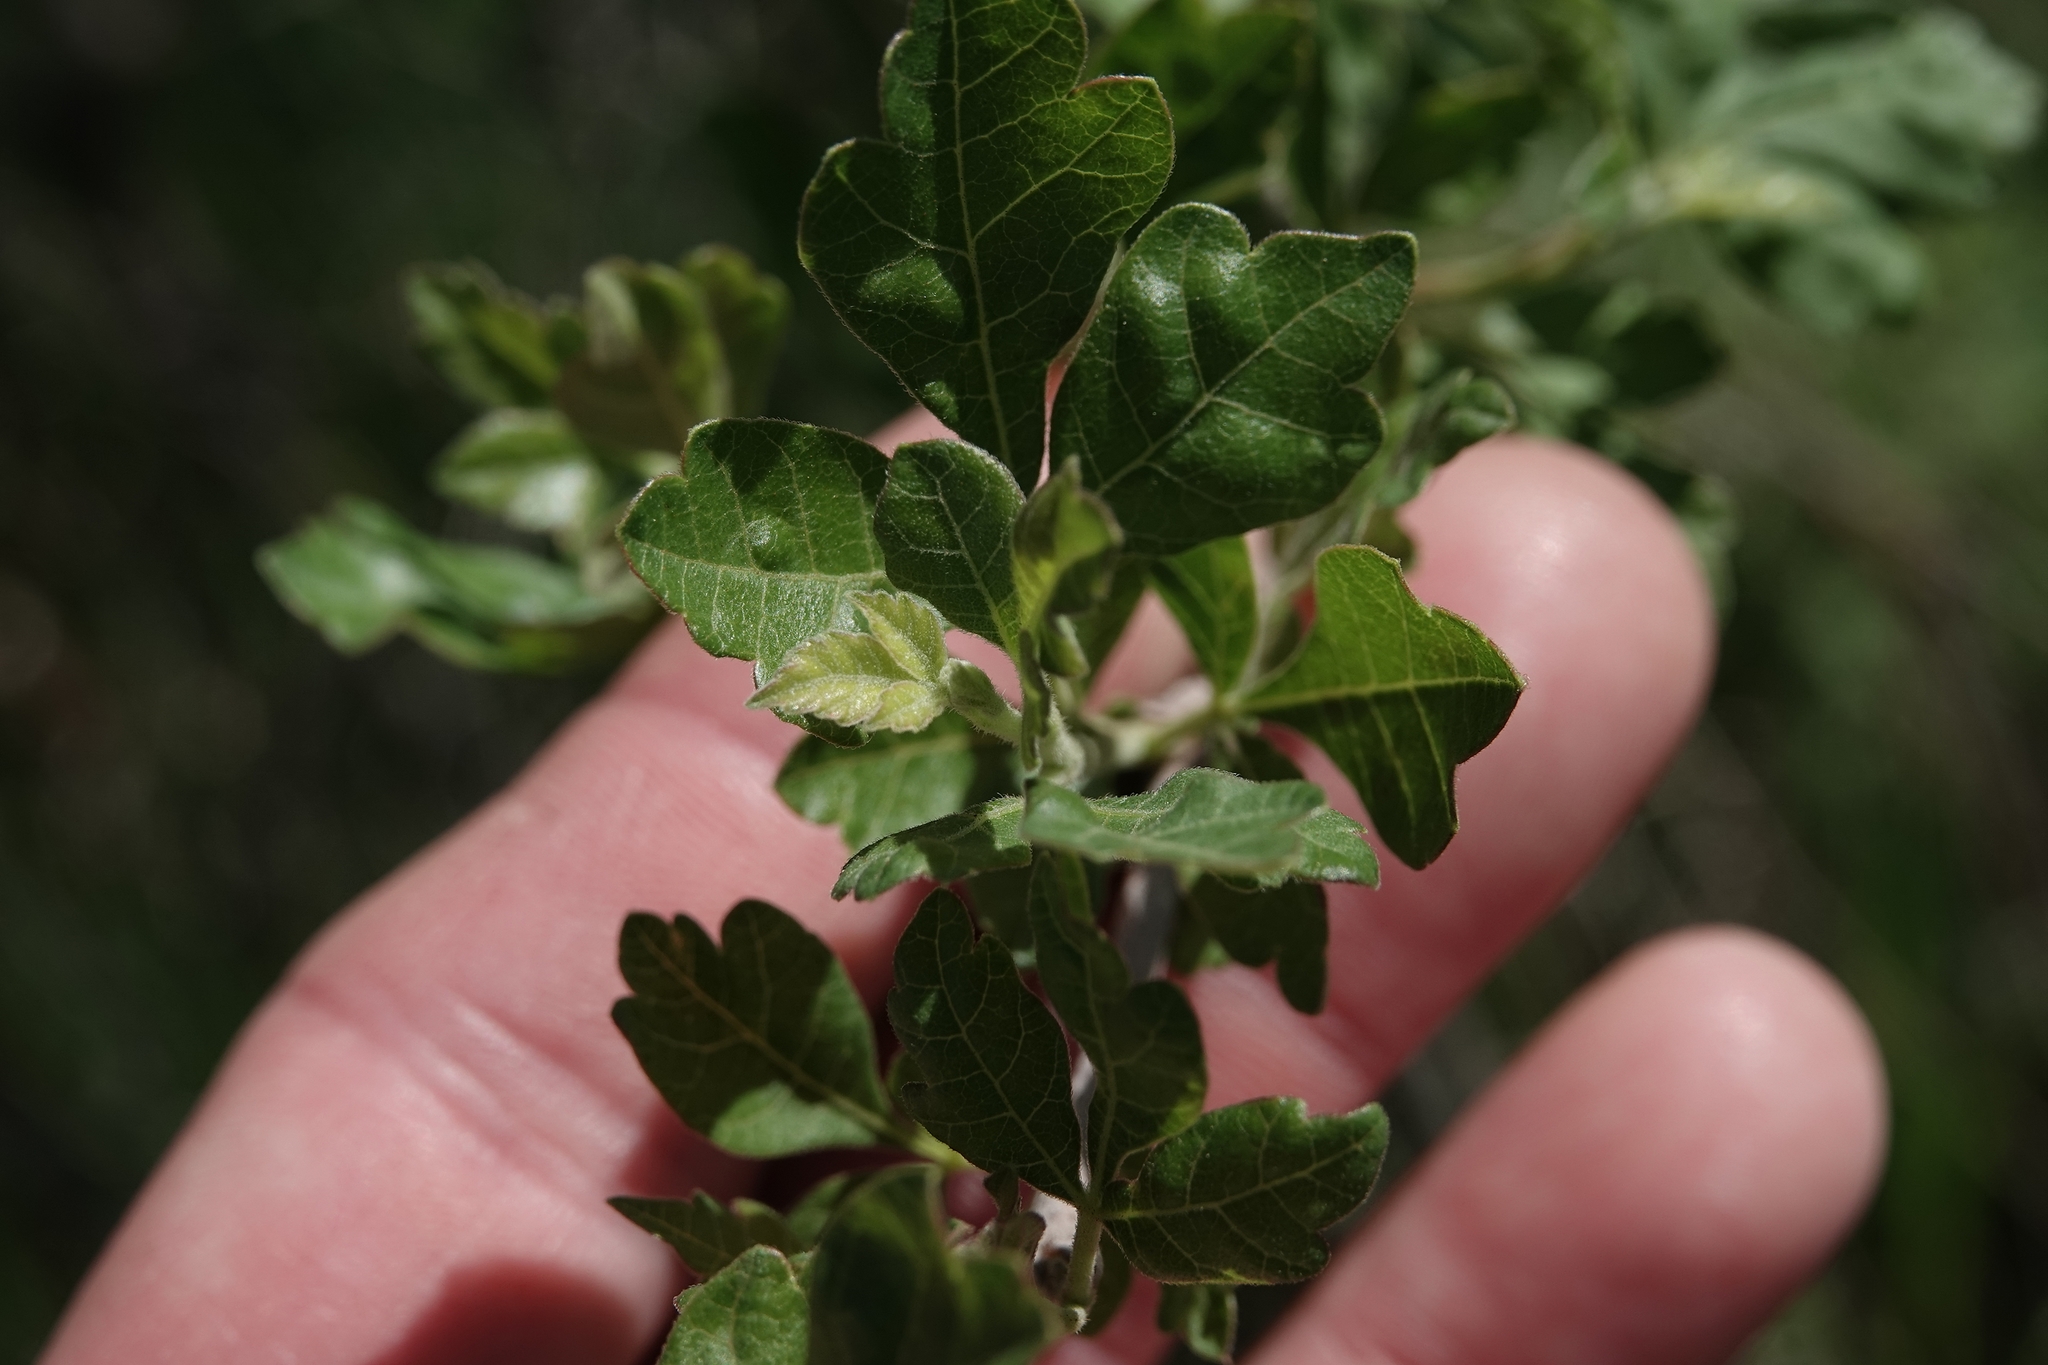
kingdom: Plantae
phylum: Tracheophyta
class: Magnoliopsida
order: Sapindales
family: Anacardiaceae
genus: Rhus
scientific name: Rhus aromatica
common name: Aromatic sumac
